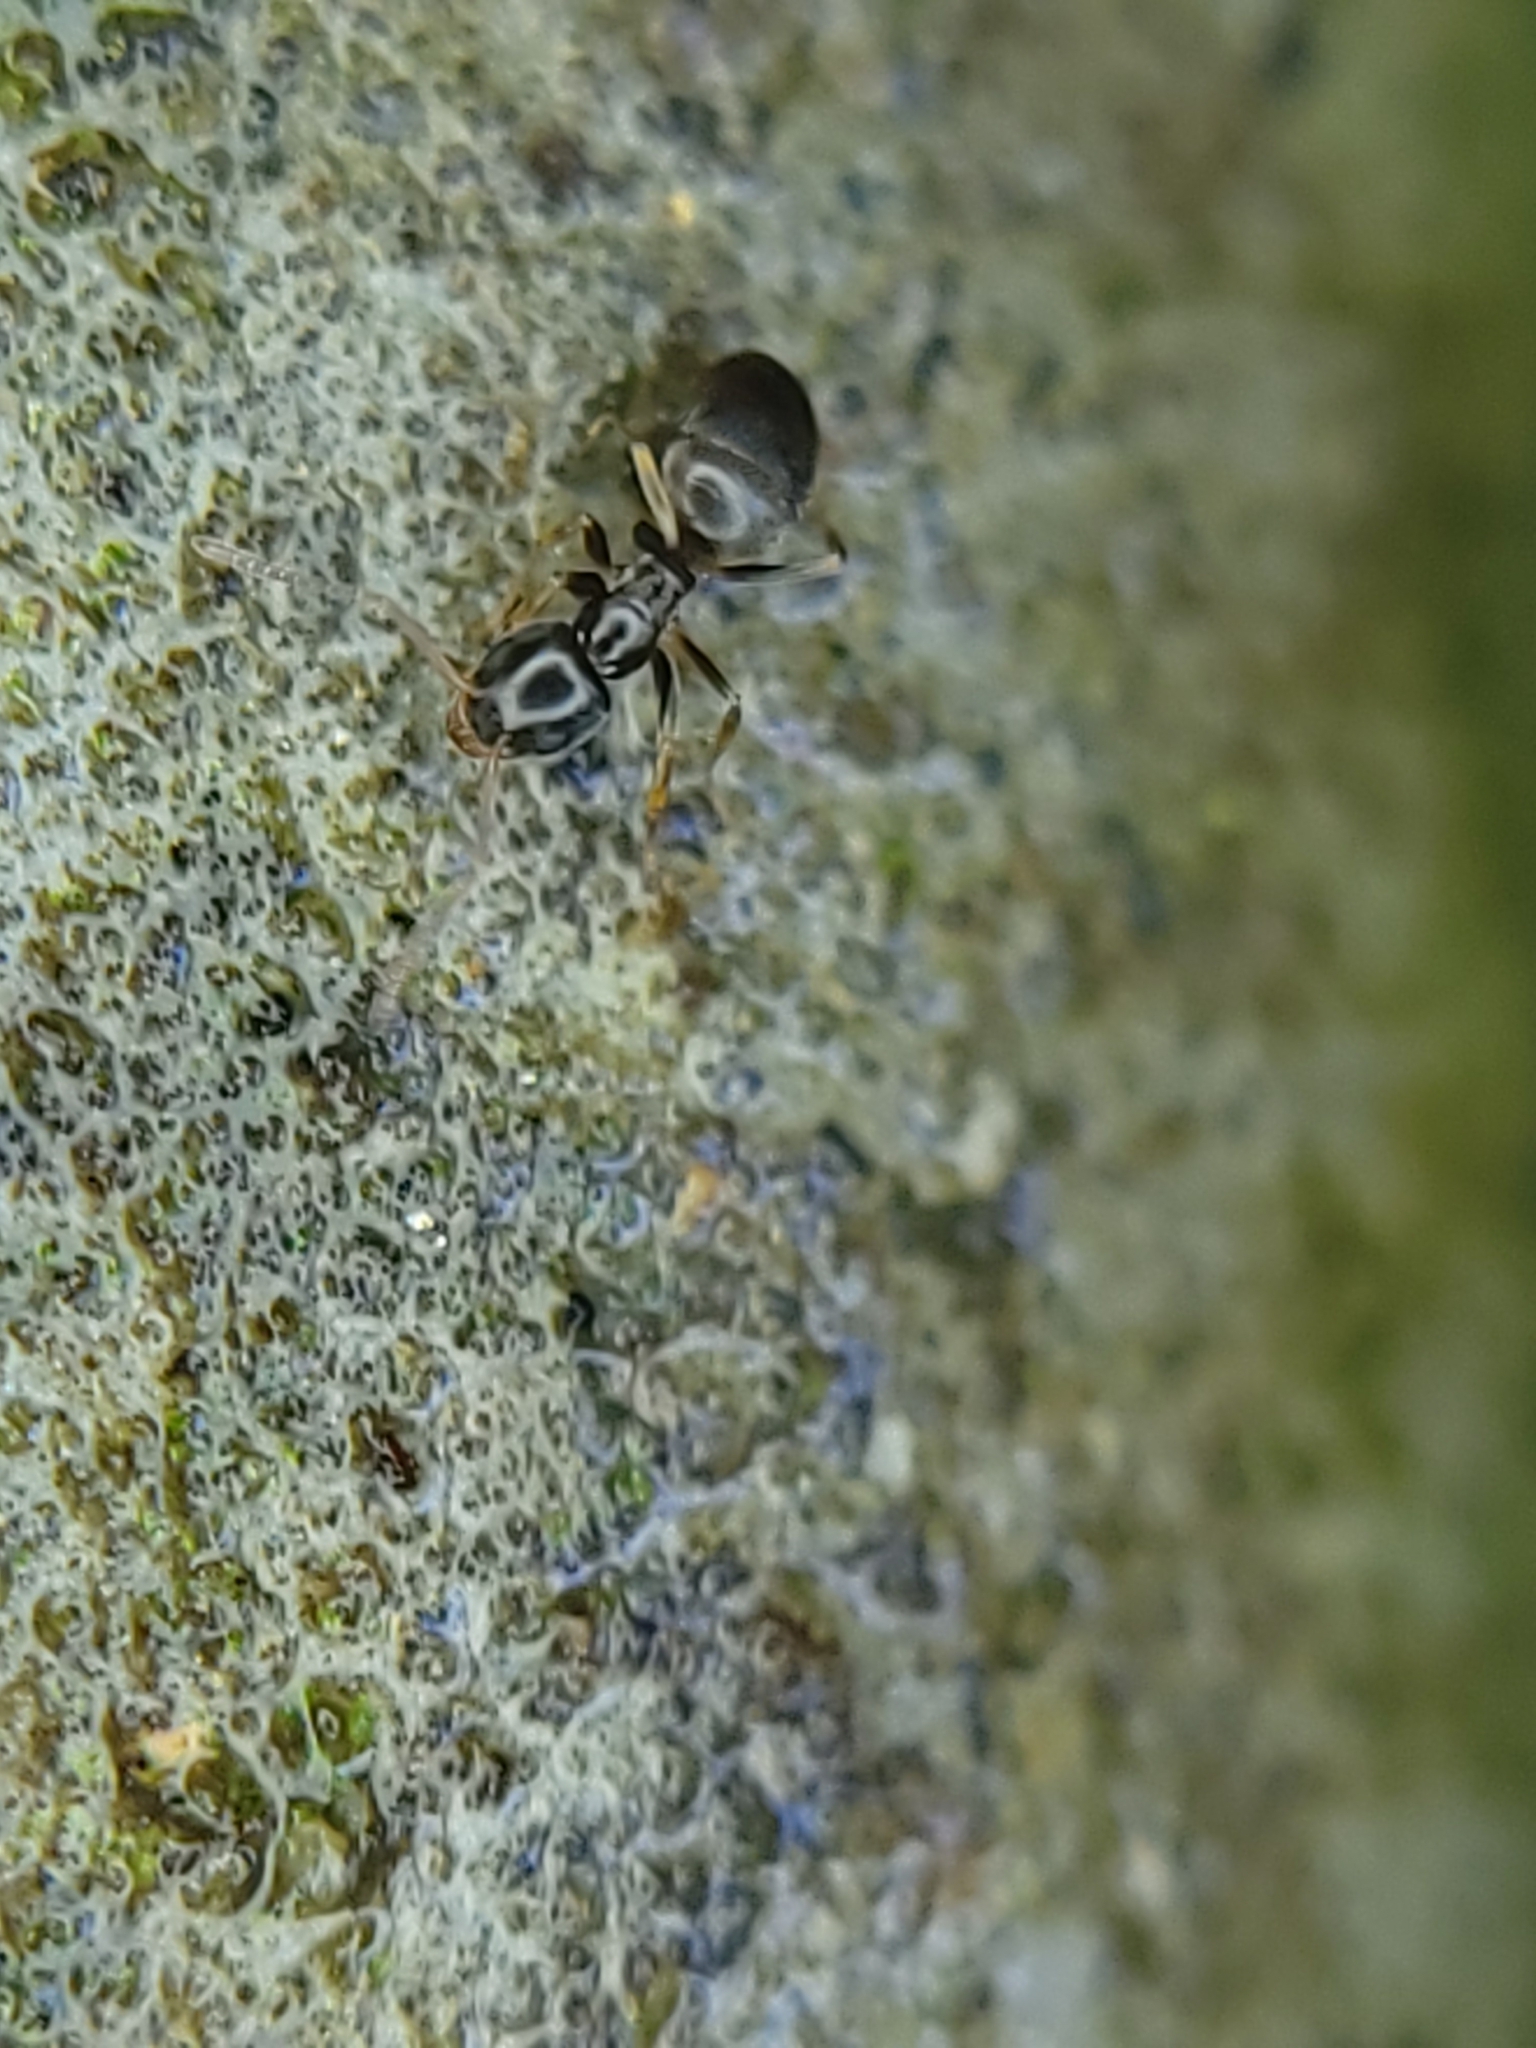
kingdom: Animalia
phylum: Arthropoda
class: Insecta
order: Hymenoptera
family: Formicidae
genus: Tapinoma
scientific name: Tapinoma sessile
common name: Odorous house ant
